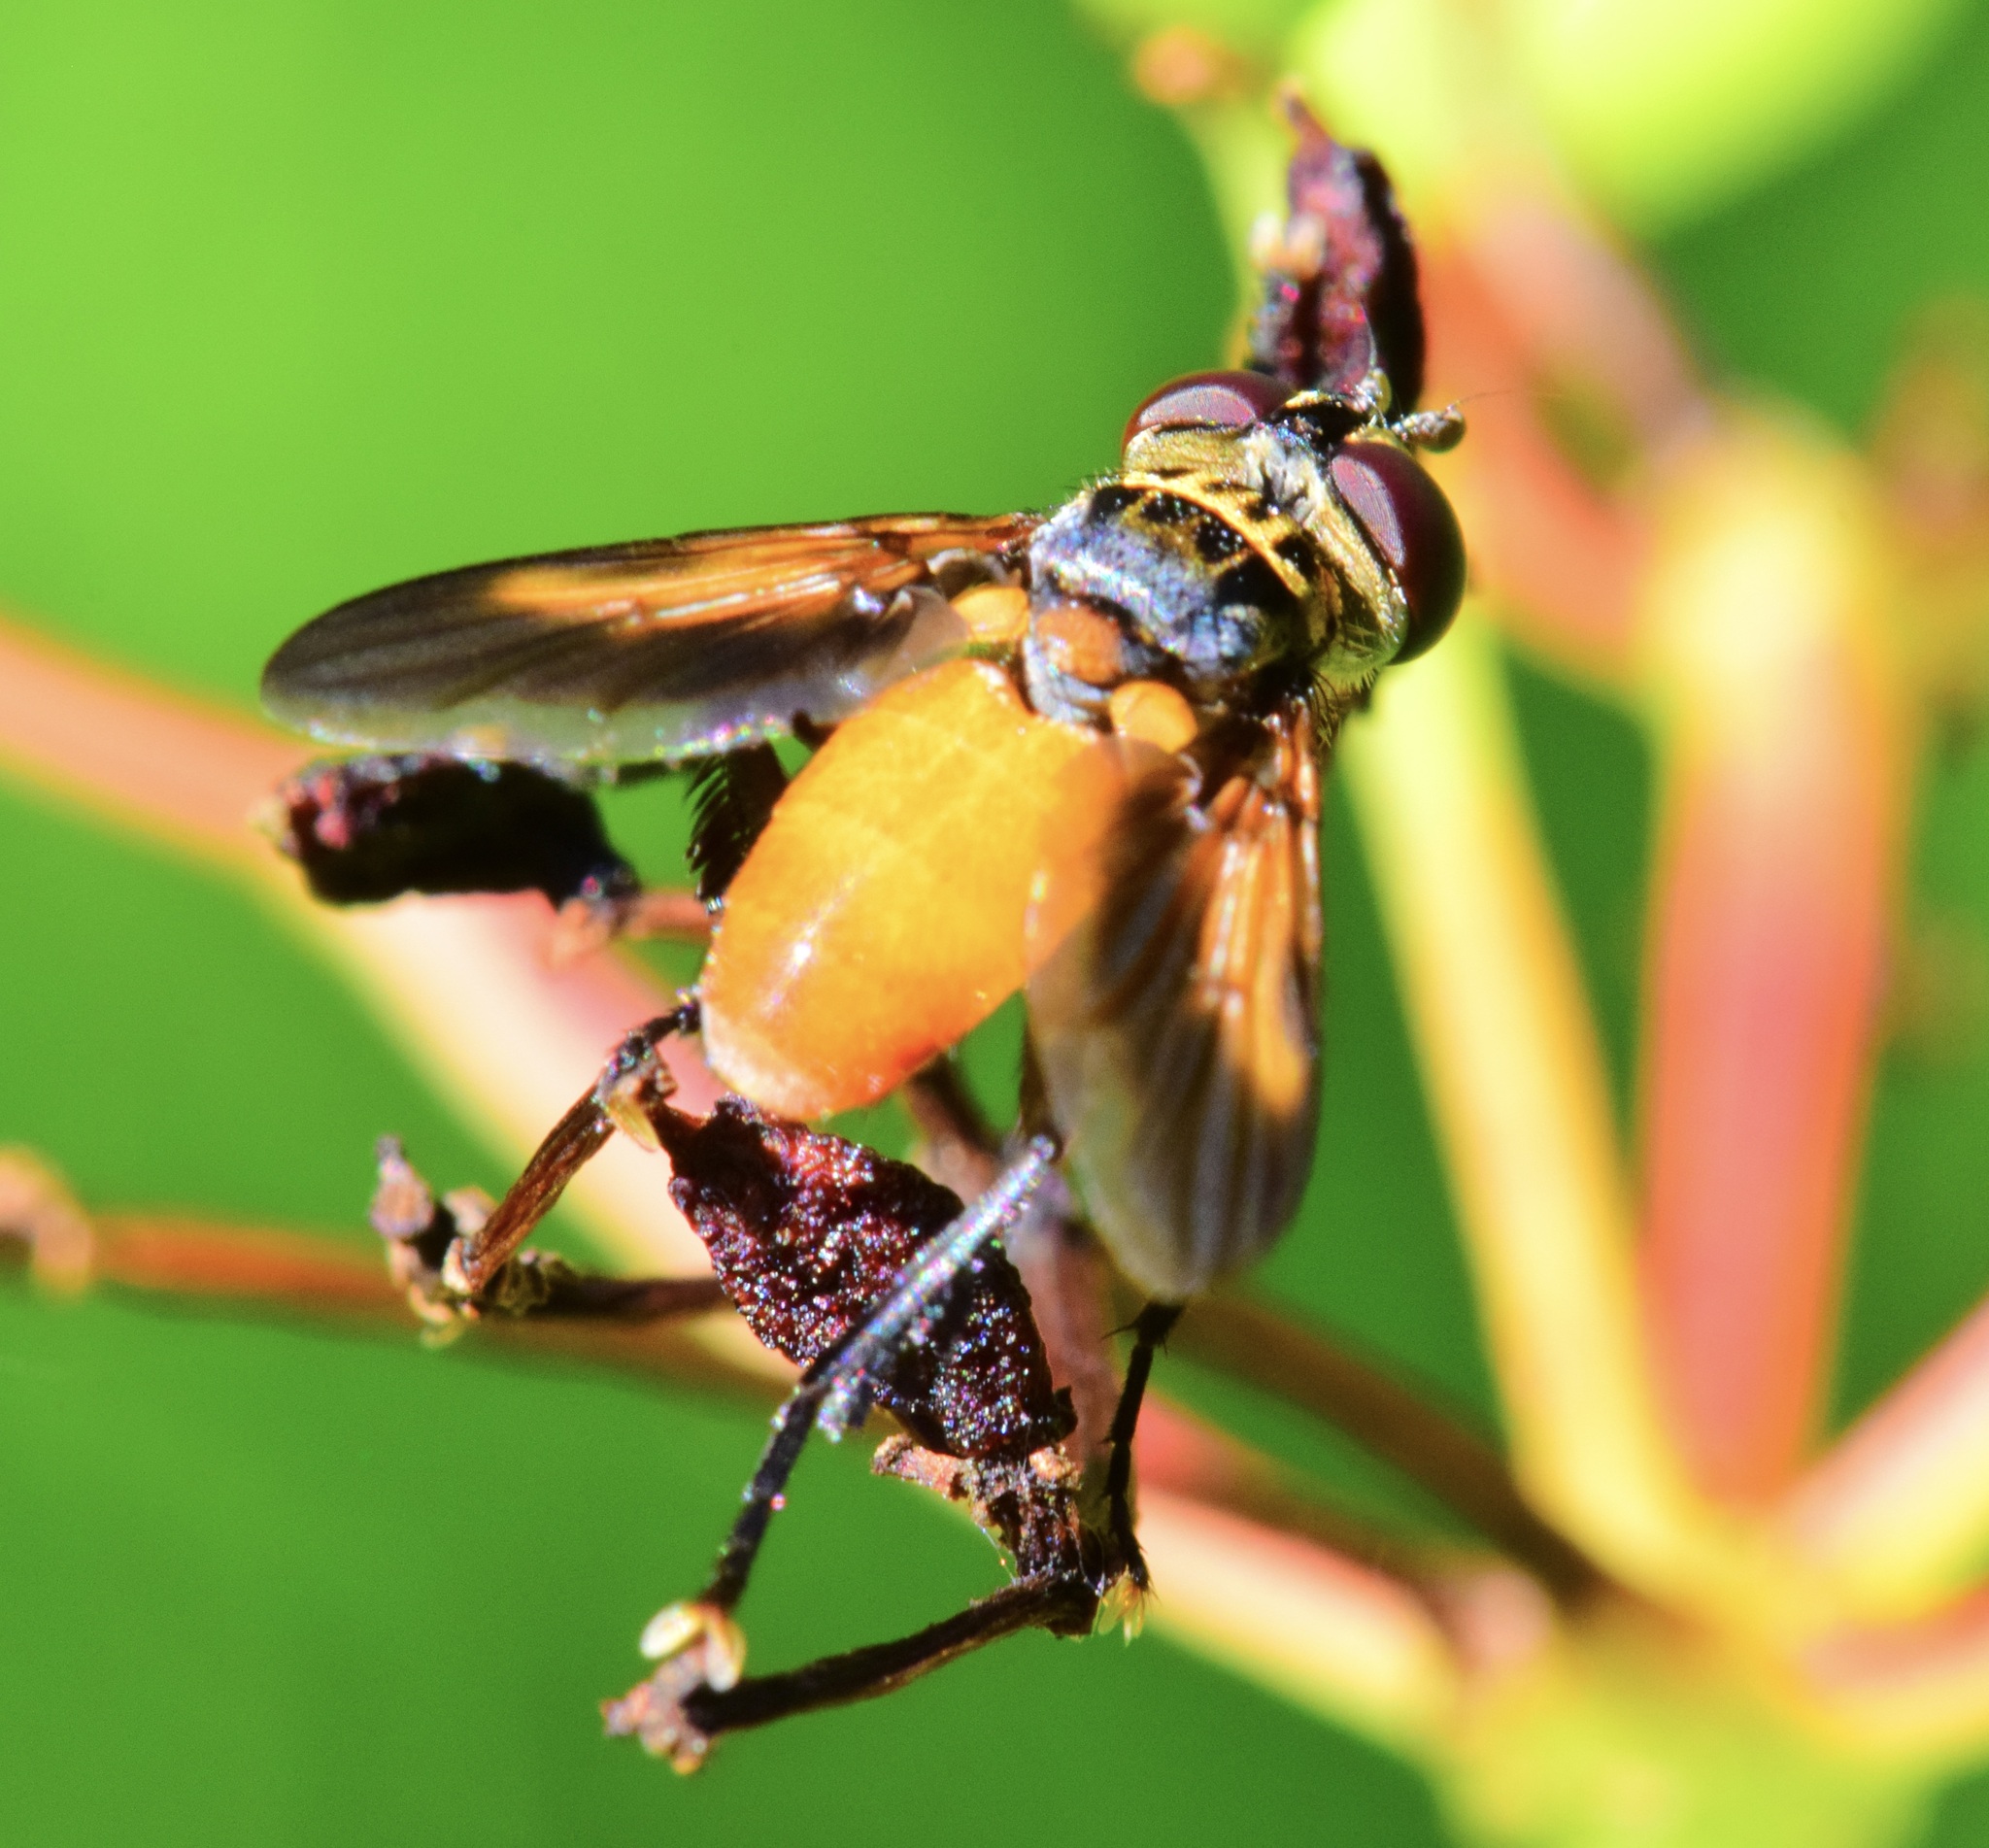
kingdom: Animalia
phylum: Arthropoda
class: Insecta
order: Diptera
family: Tachinidae
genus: Trichopoda
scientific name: Trichopoda pennipes
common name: Tachinid fly
